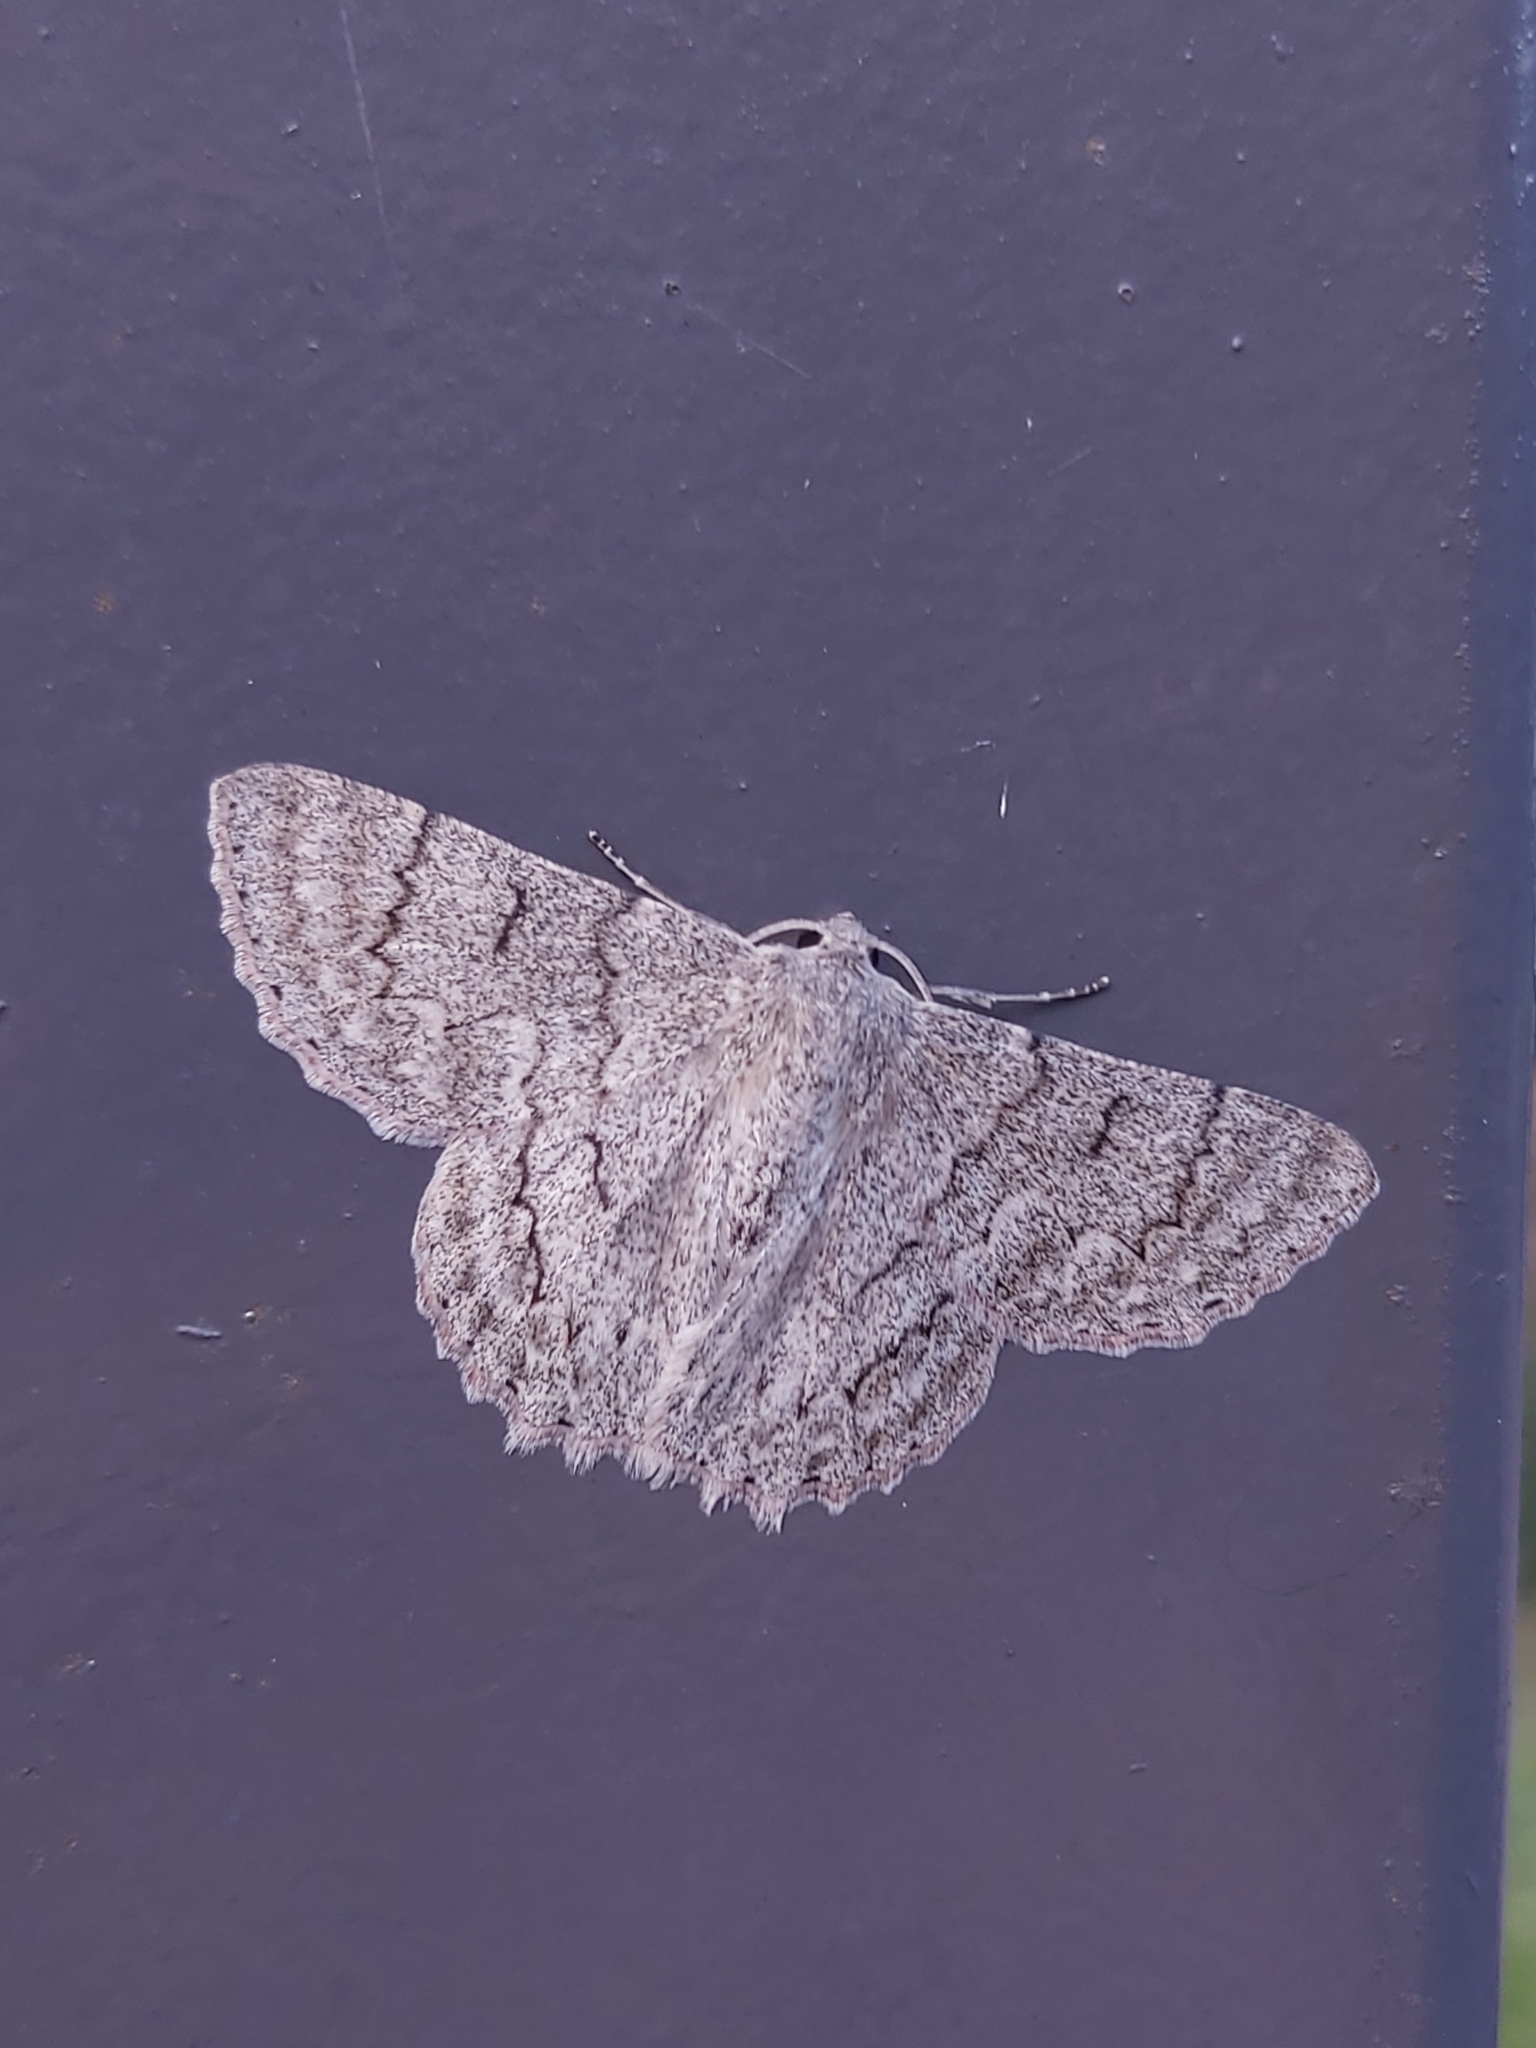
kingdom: Animalia
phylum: Arthropoda
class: Insecta
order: Lepidoptera
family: Geometridae
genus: Crypsiphona
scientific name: Crypsiphona ocultaria
